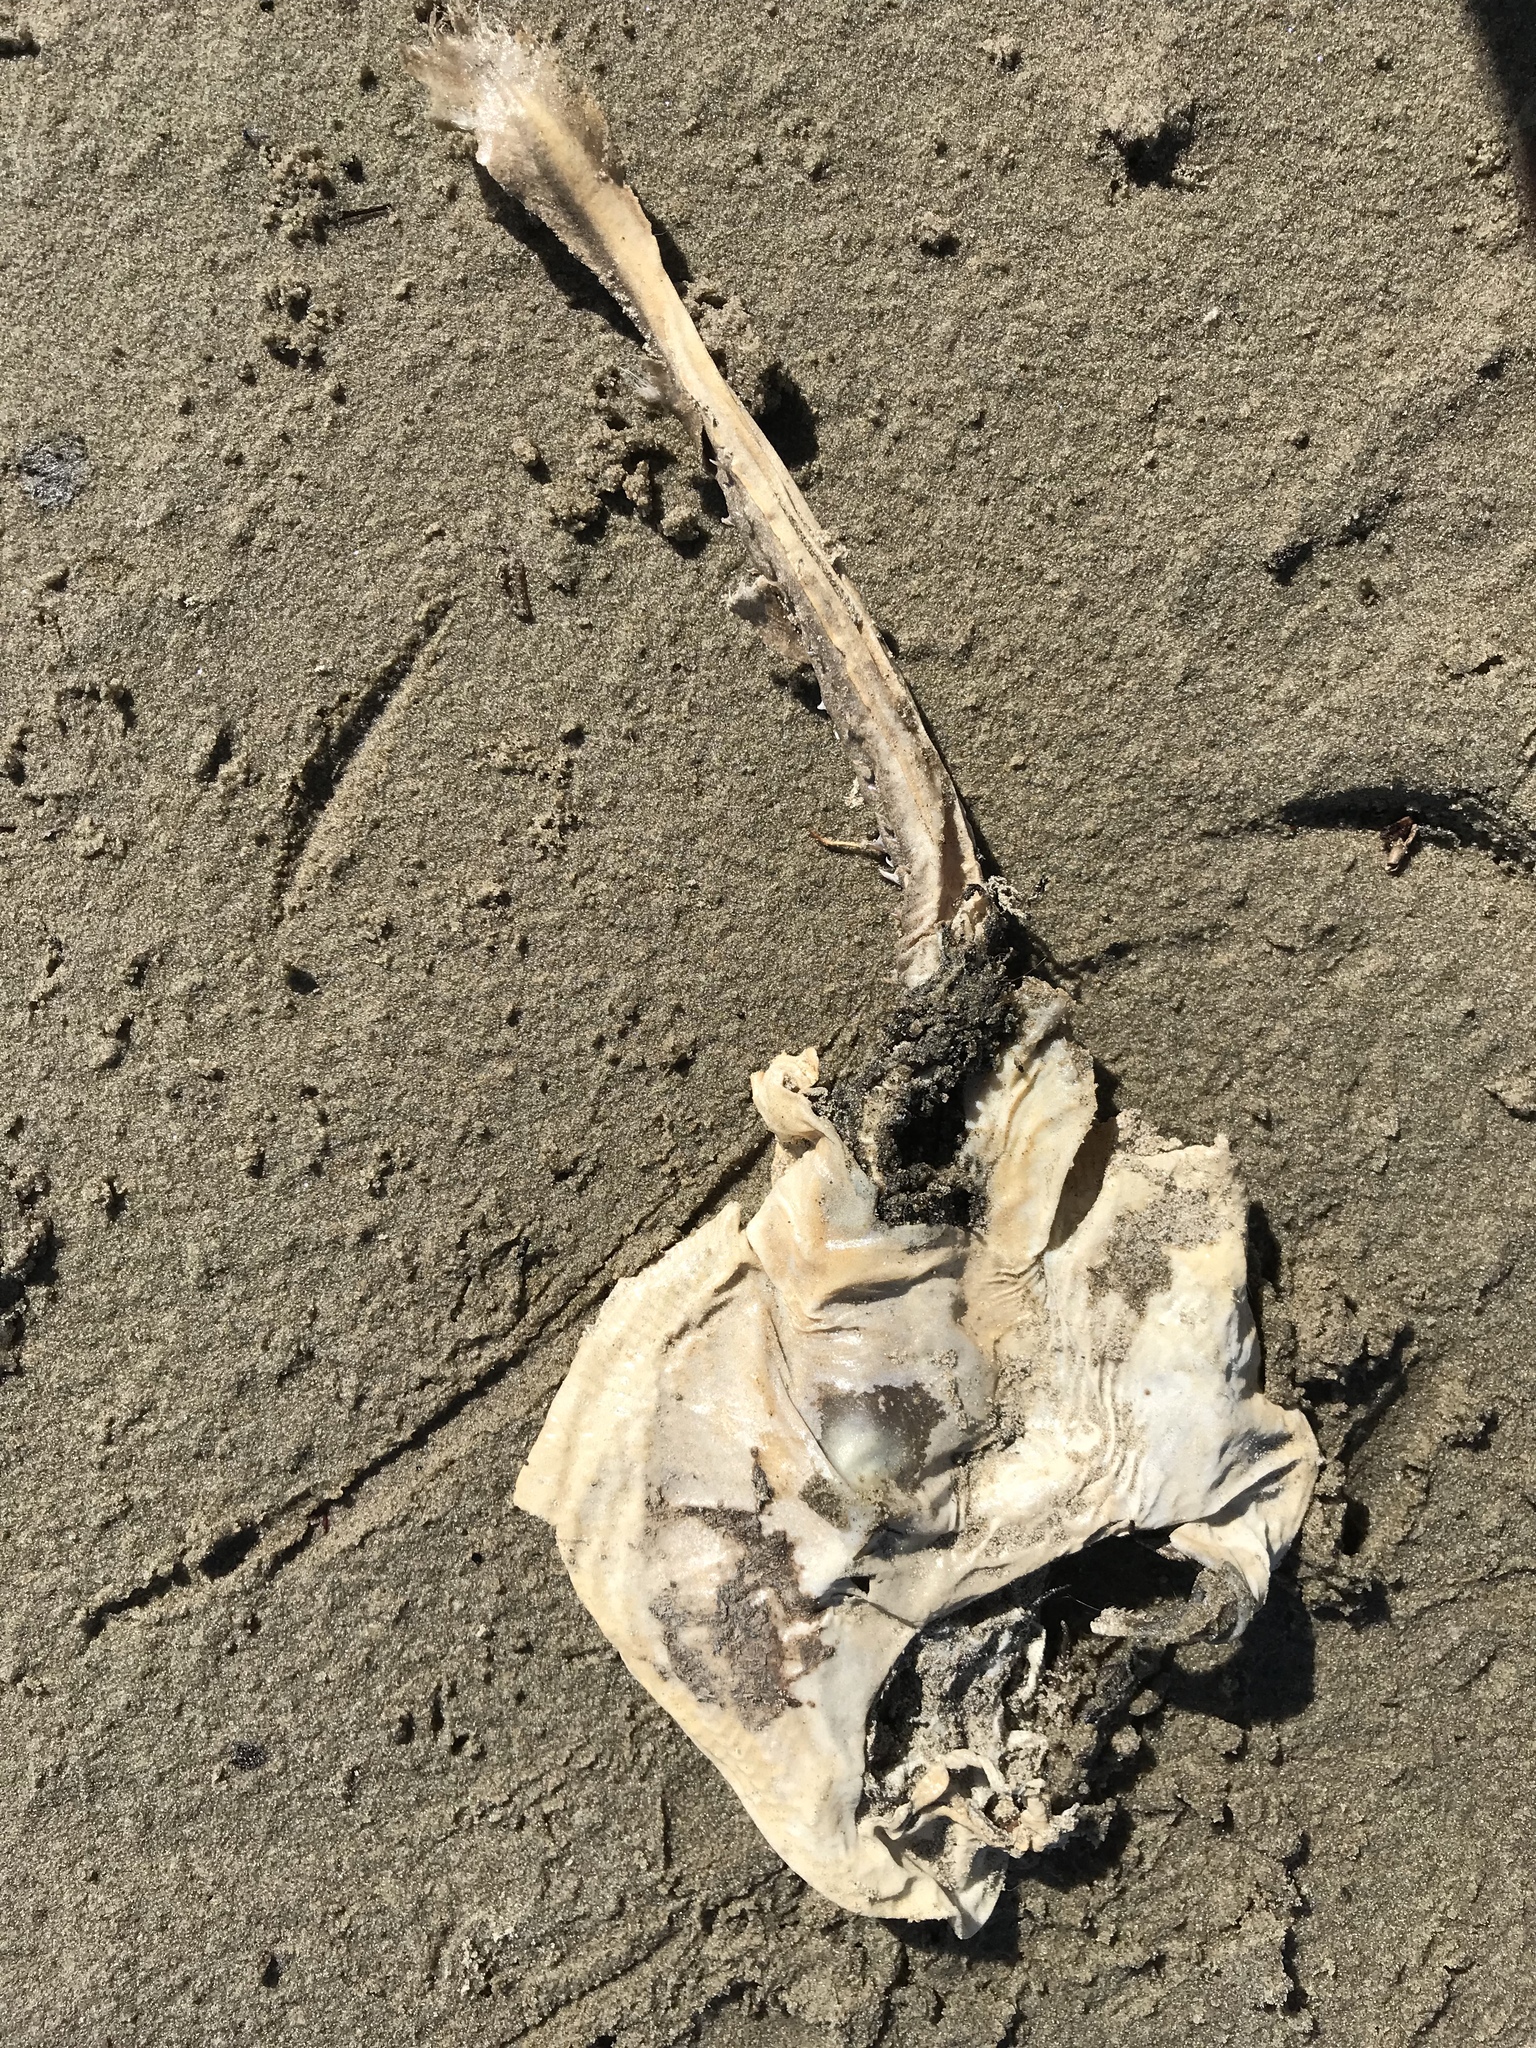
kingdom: Animalia
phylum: Chordata
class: Elasmobranchii
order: Rhinopristiformes
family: Rhinobatidae
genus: Platyrhinoidis
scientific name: Platyrhinoidis triseriata
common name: Thornback
